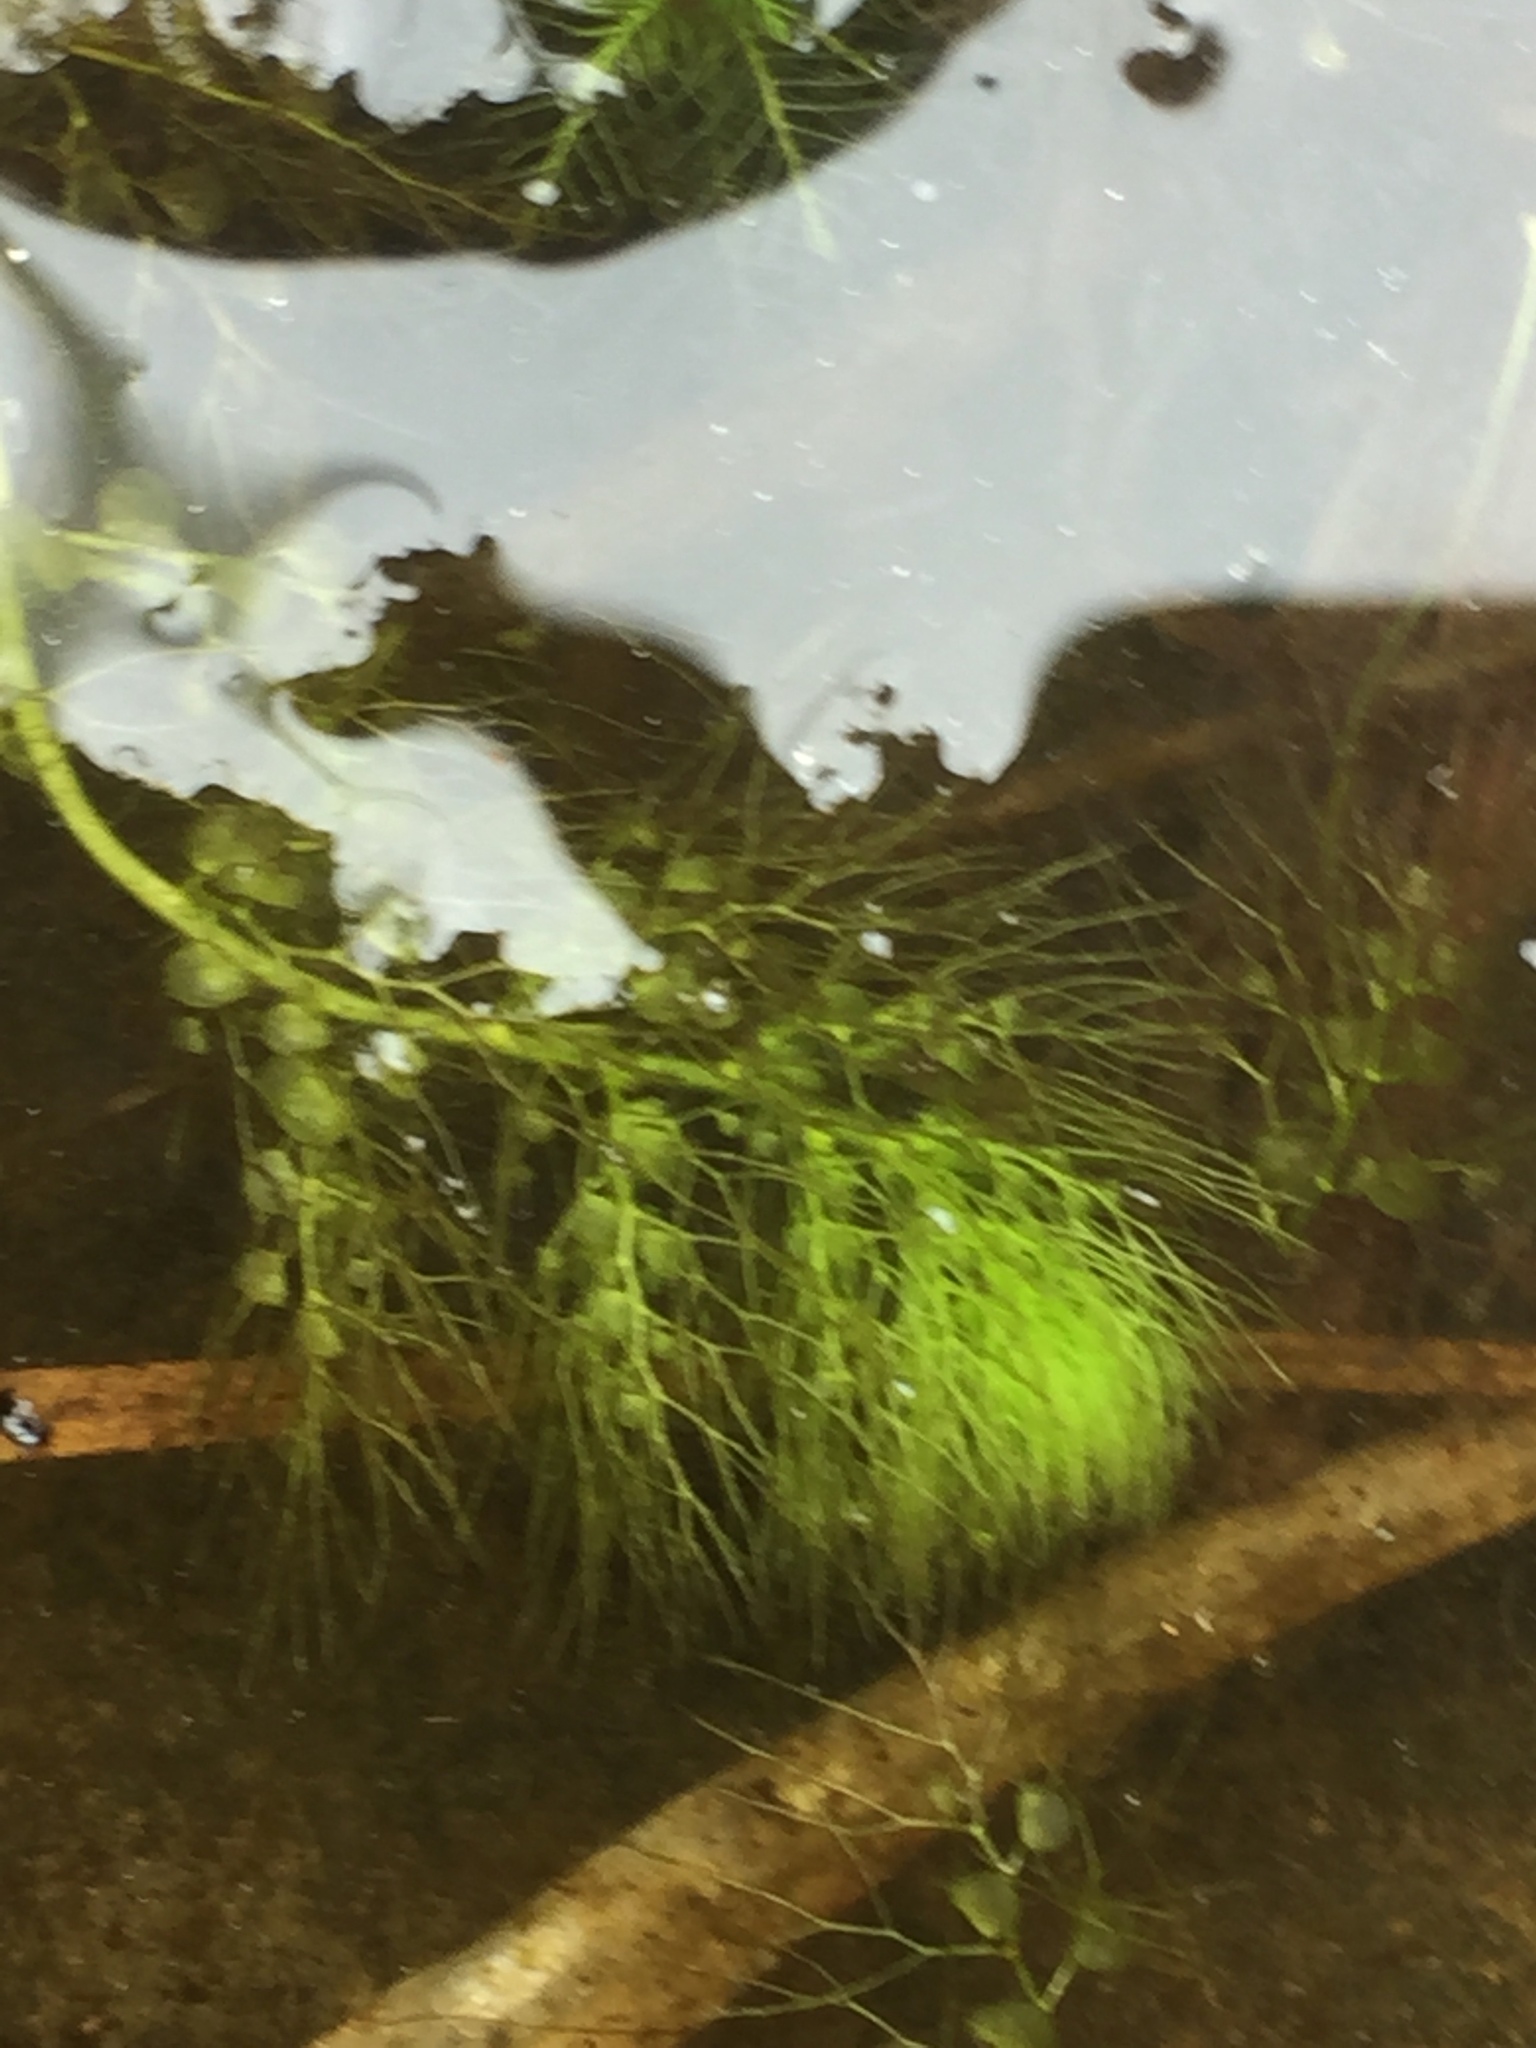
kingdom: Plantae
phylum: Tracheophyta
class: Magnoliopsida
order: Lamiales
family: Lentibulariaceae
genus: Utricularia
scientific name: Utricularia
